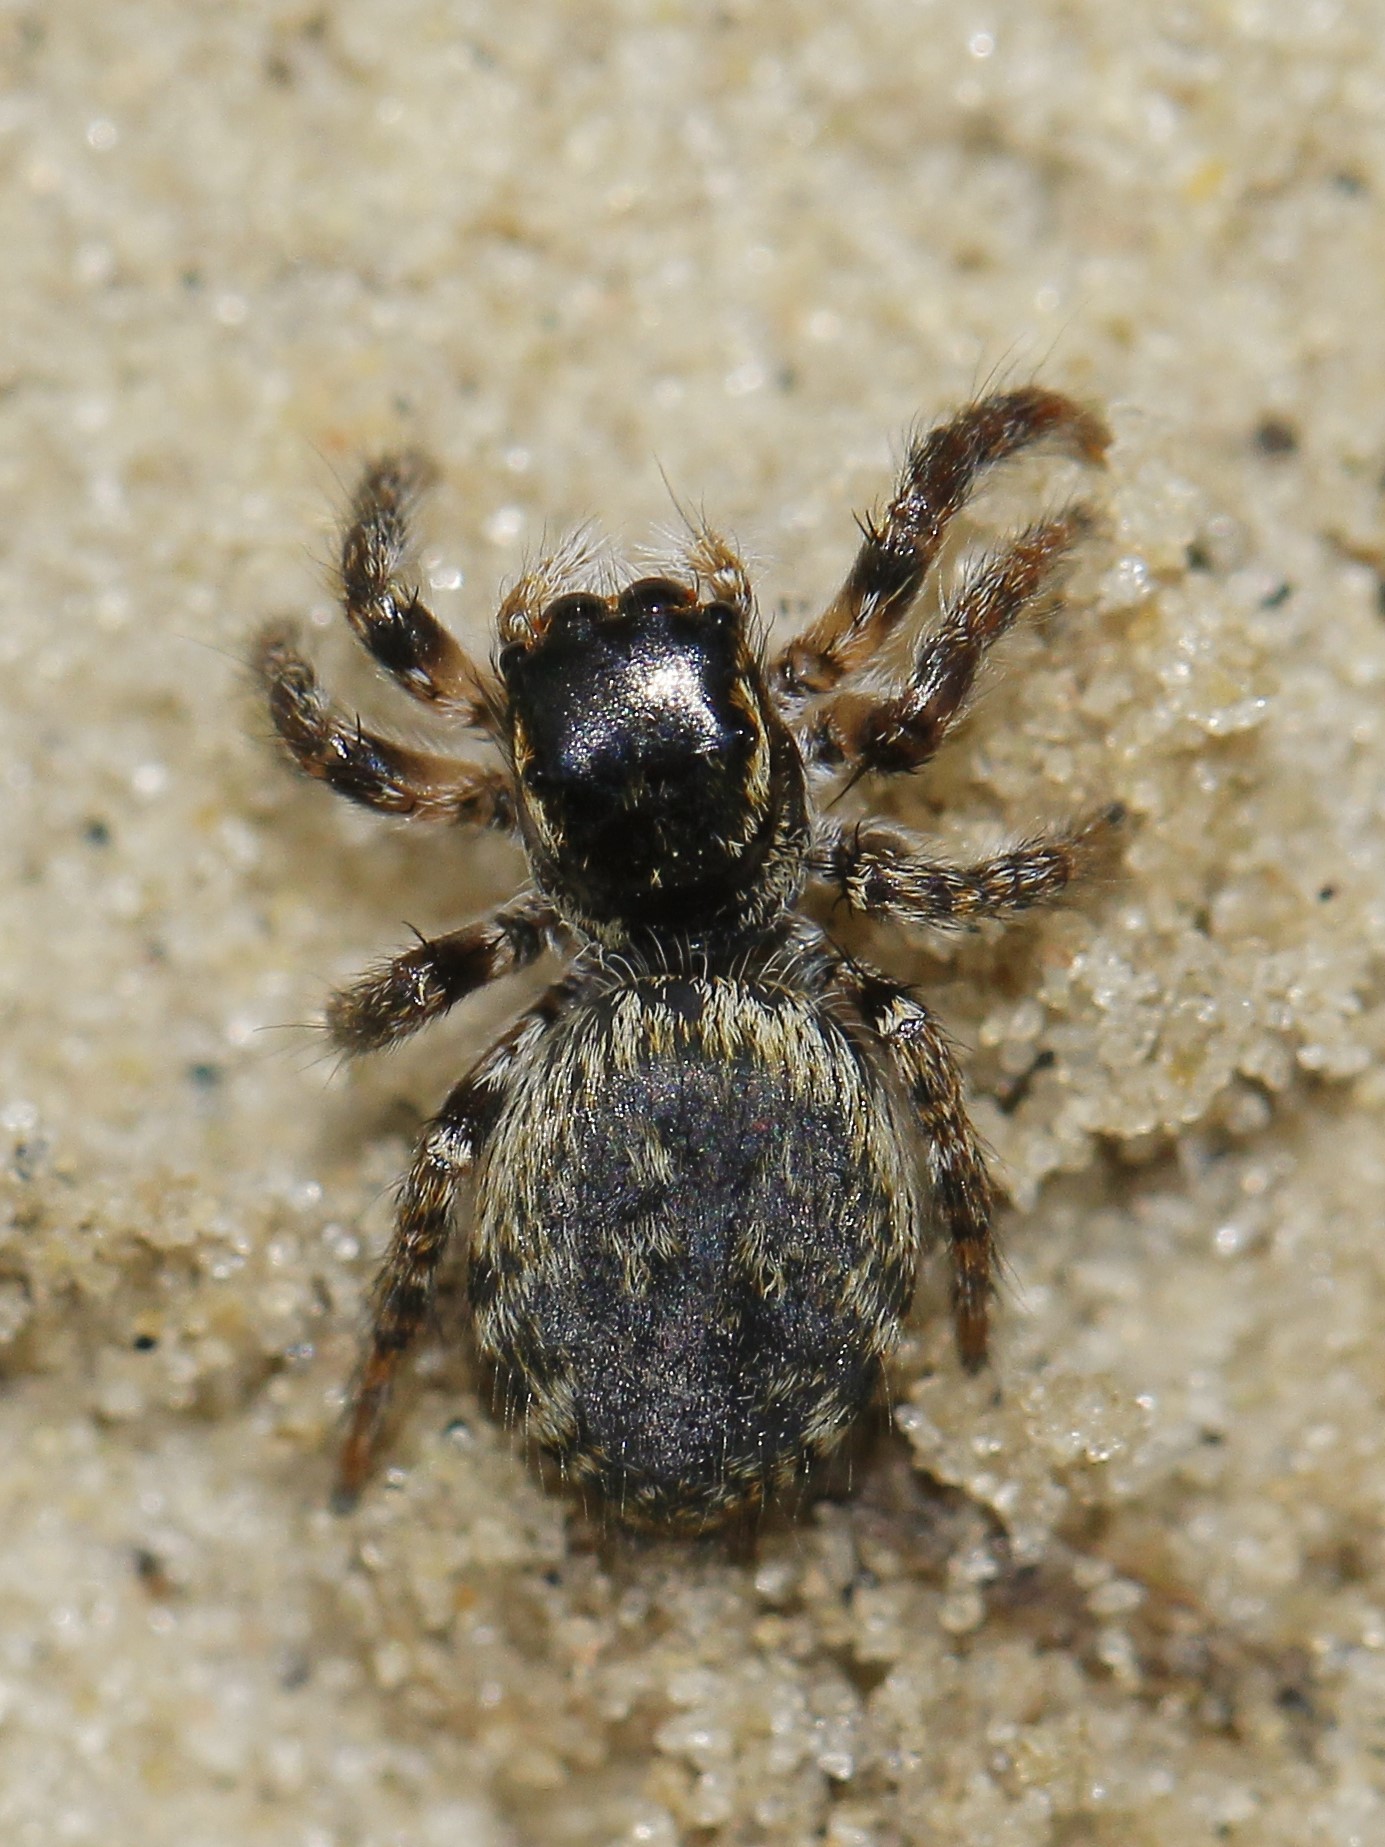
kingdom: Animalia
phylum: Arthropoda
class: Arachnida
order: Araneae
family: Salticidae
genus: Carrhotus
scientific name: Carrhotus xanthogramma
